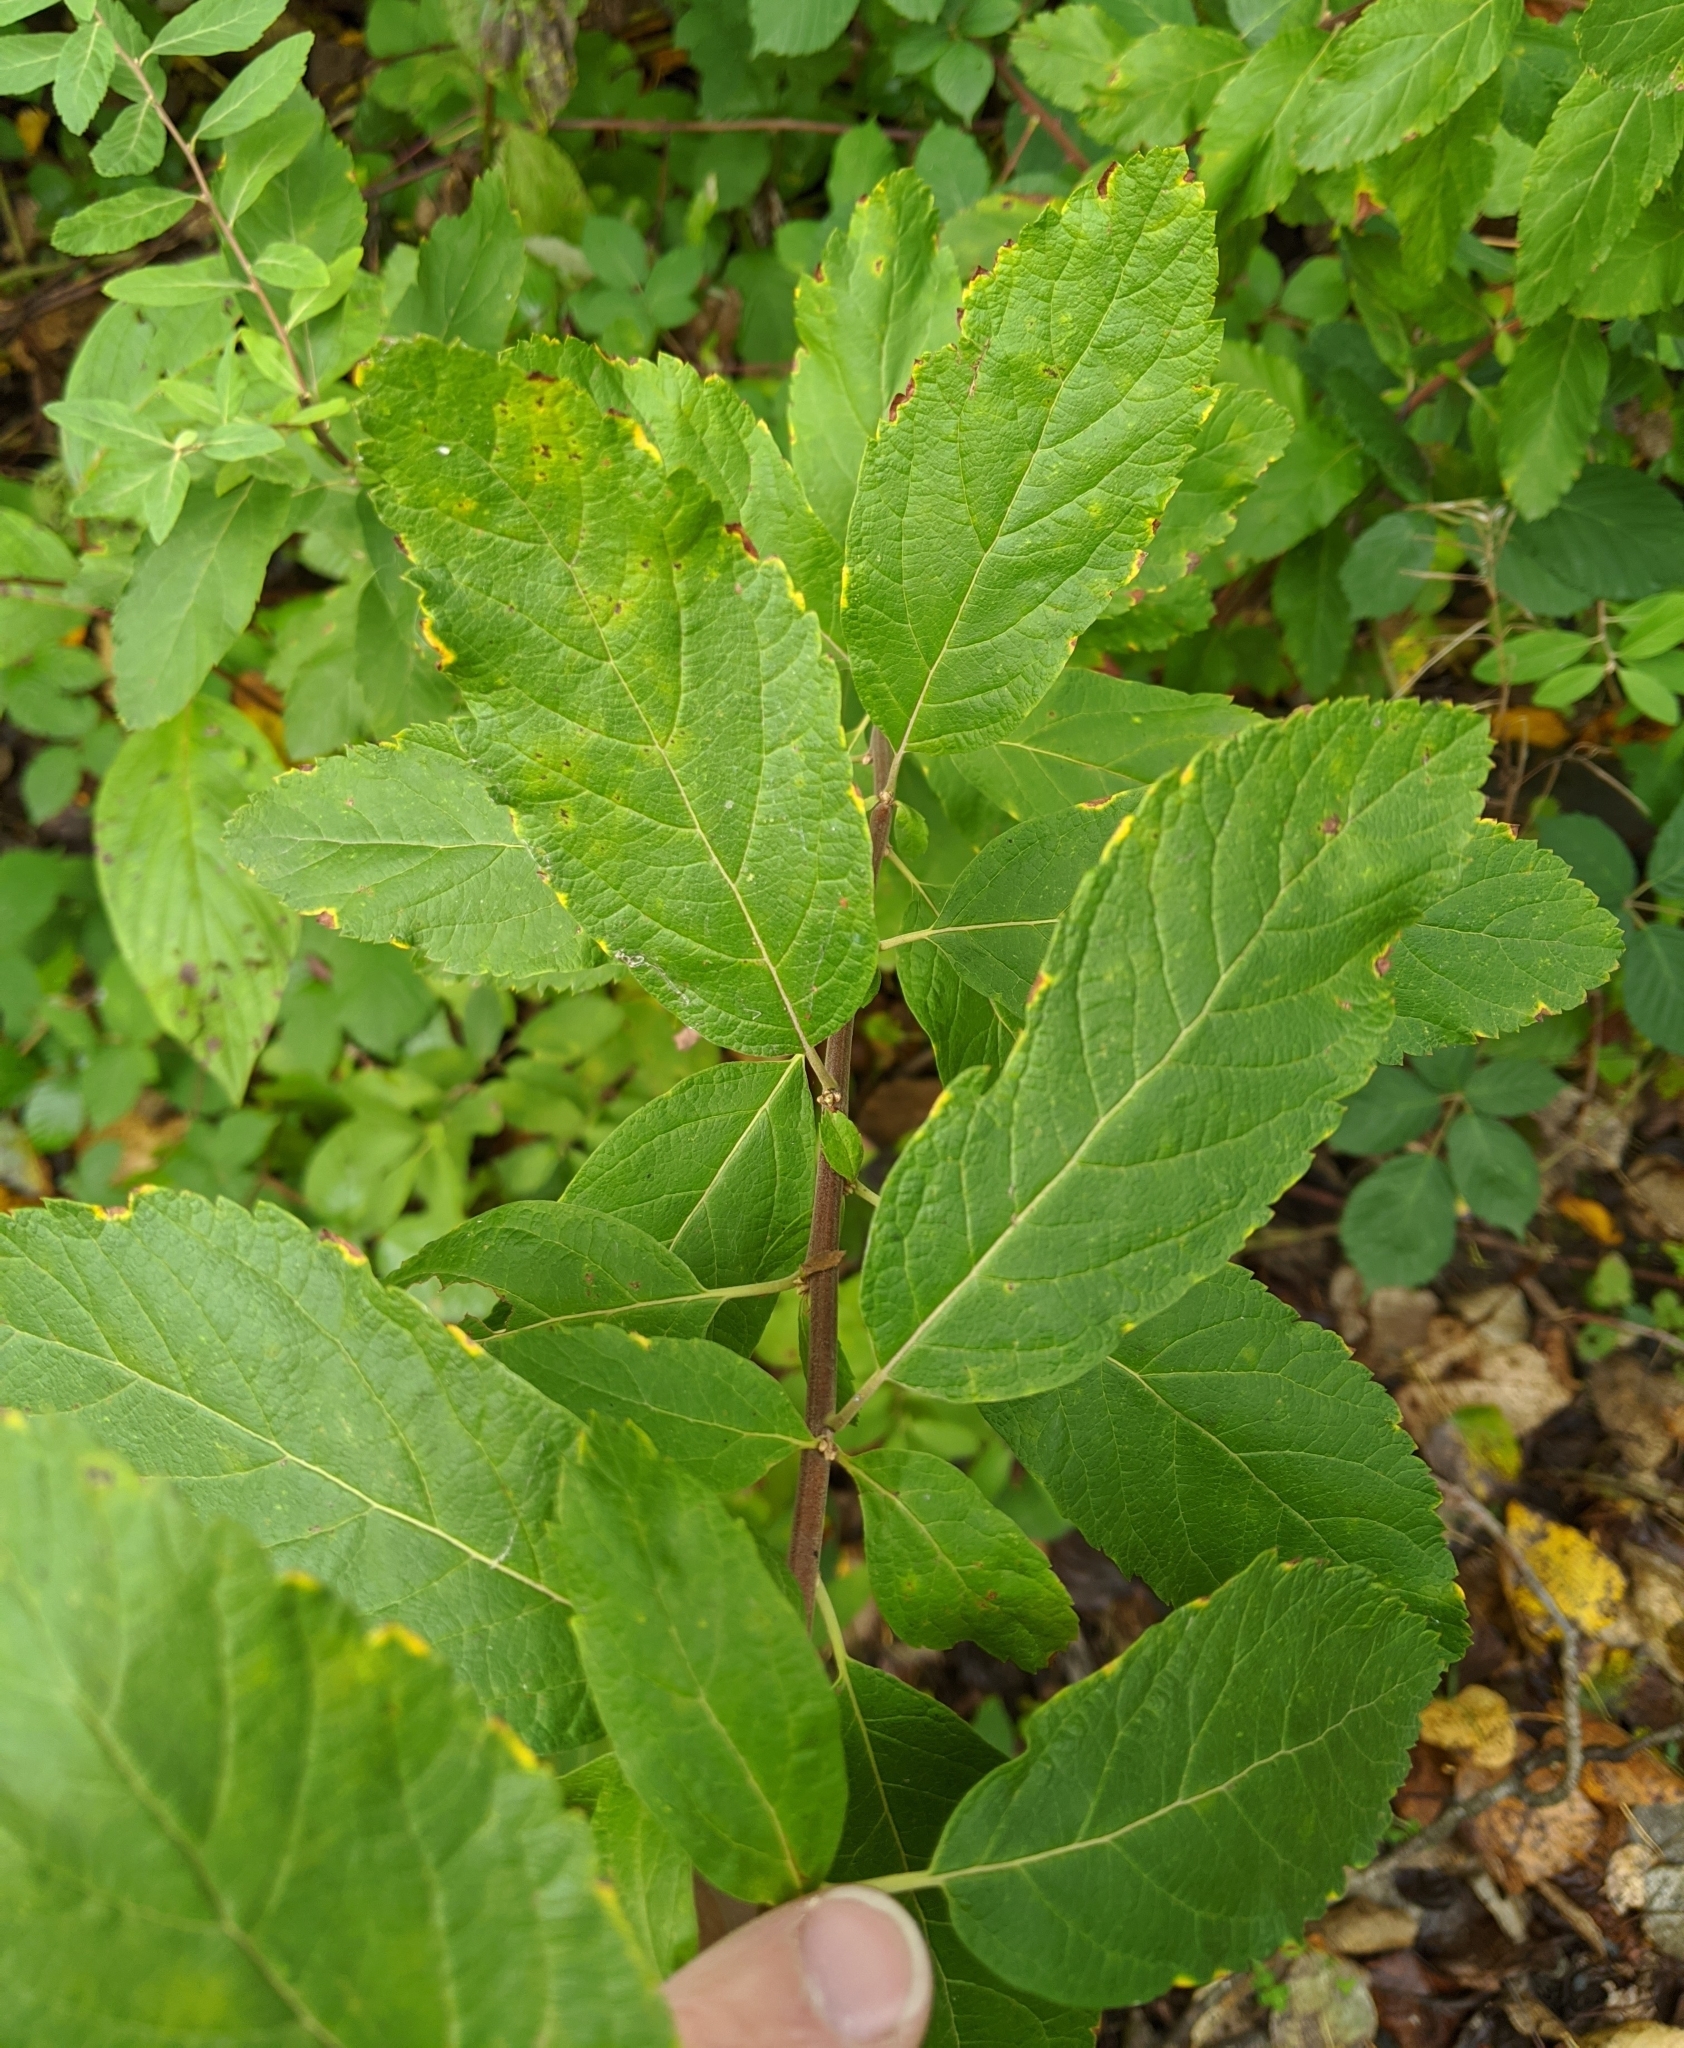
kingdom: Plantae
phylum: Tracheophyta
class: Magnoliopsida
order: Rosales
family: Rosaceae
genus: Spiraea
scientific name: Spiraea douglasii
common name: Steeplebush
